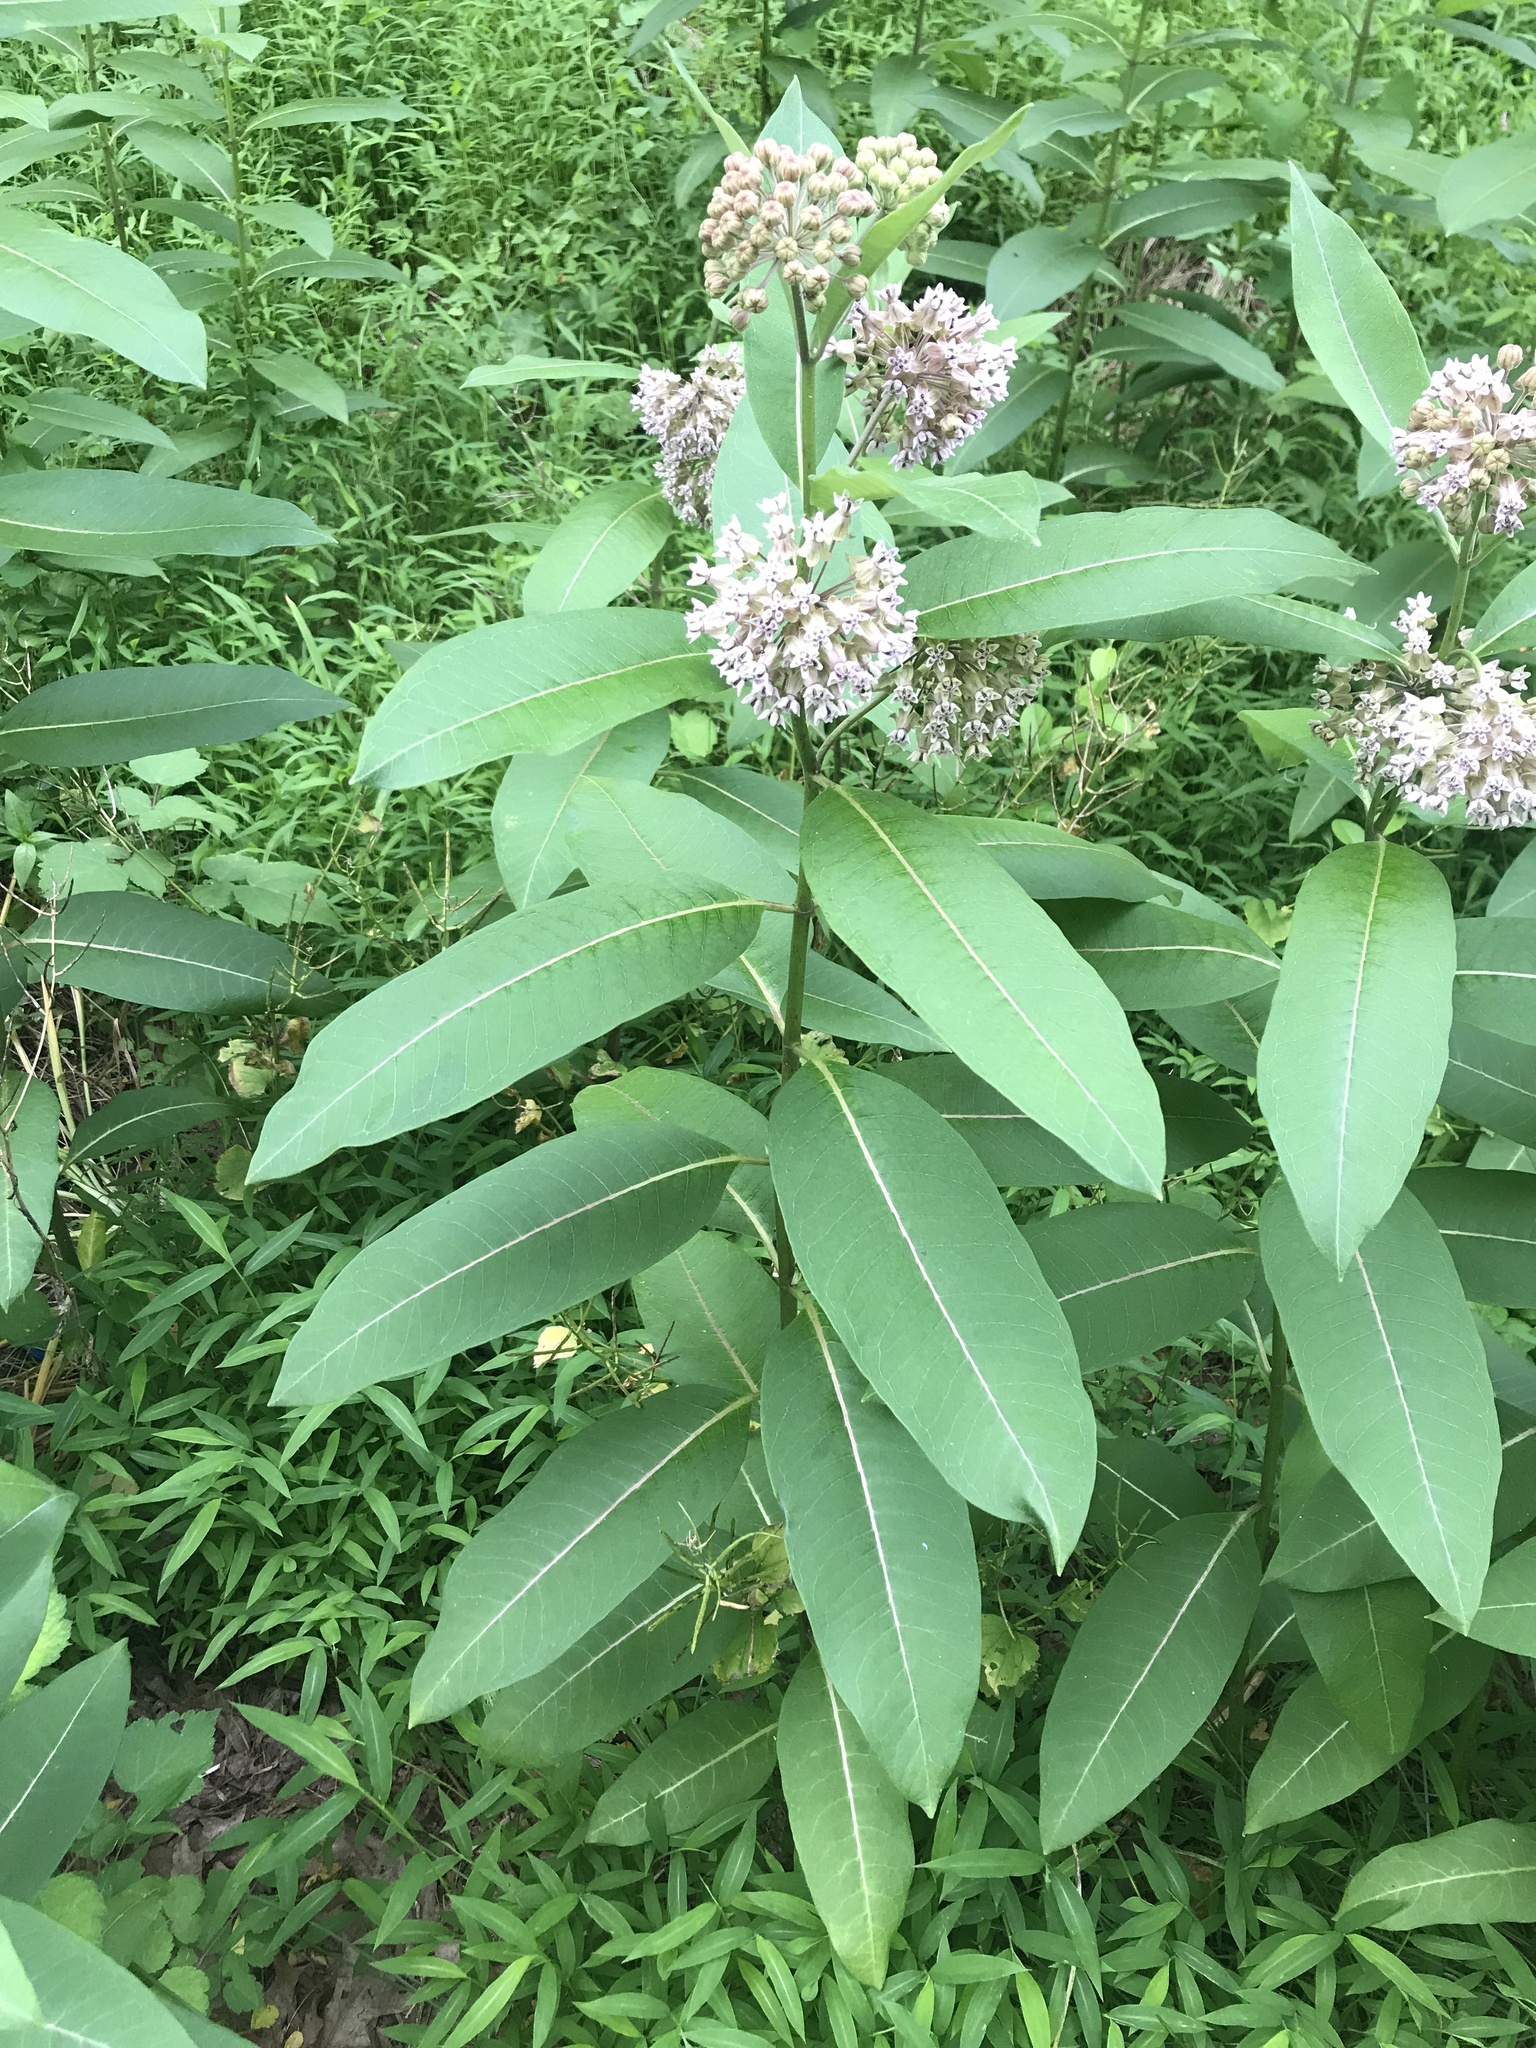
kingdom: Plantae
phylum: Tracheophyta
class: Magnoliopsida
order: Gentianales
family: Apocynaceae
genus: Asclepias
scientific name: Asclepias syriaca
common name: Common milkweed
